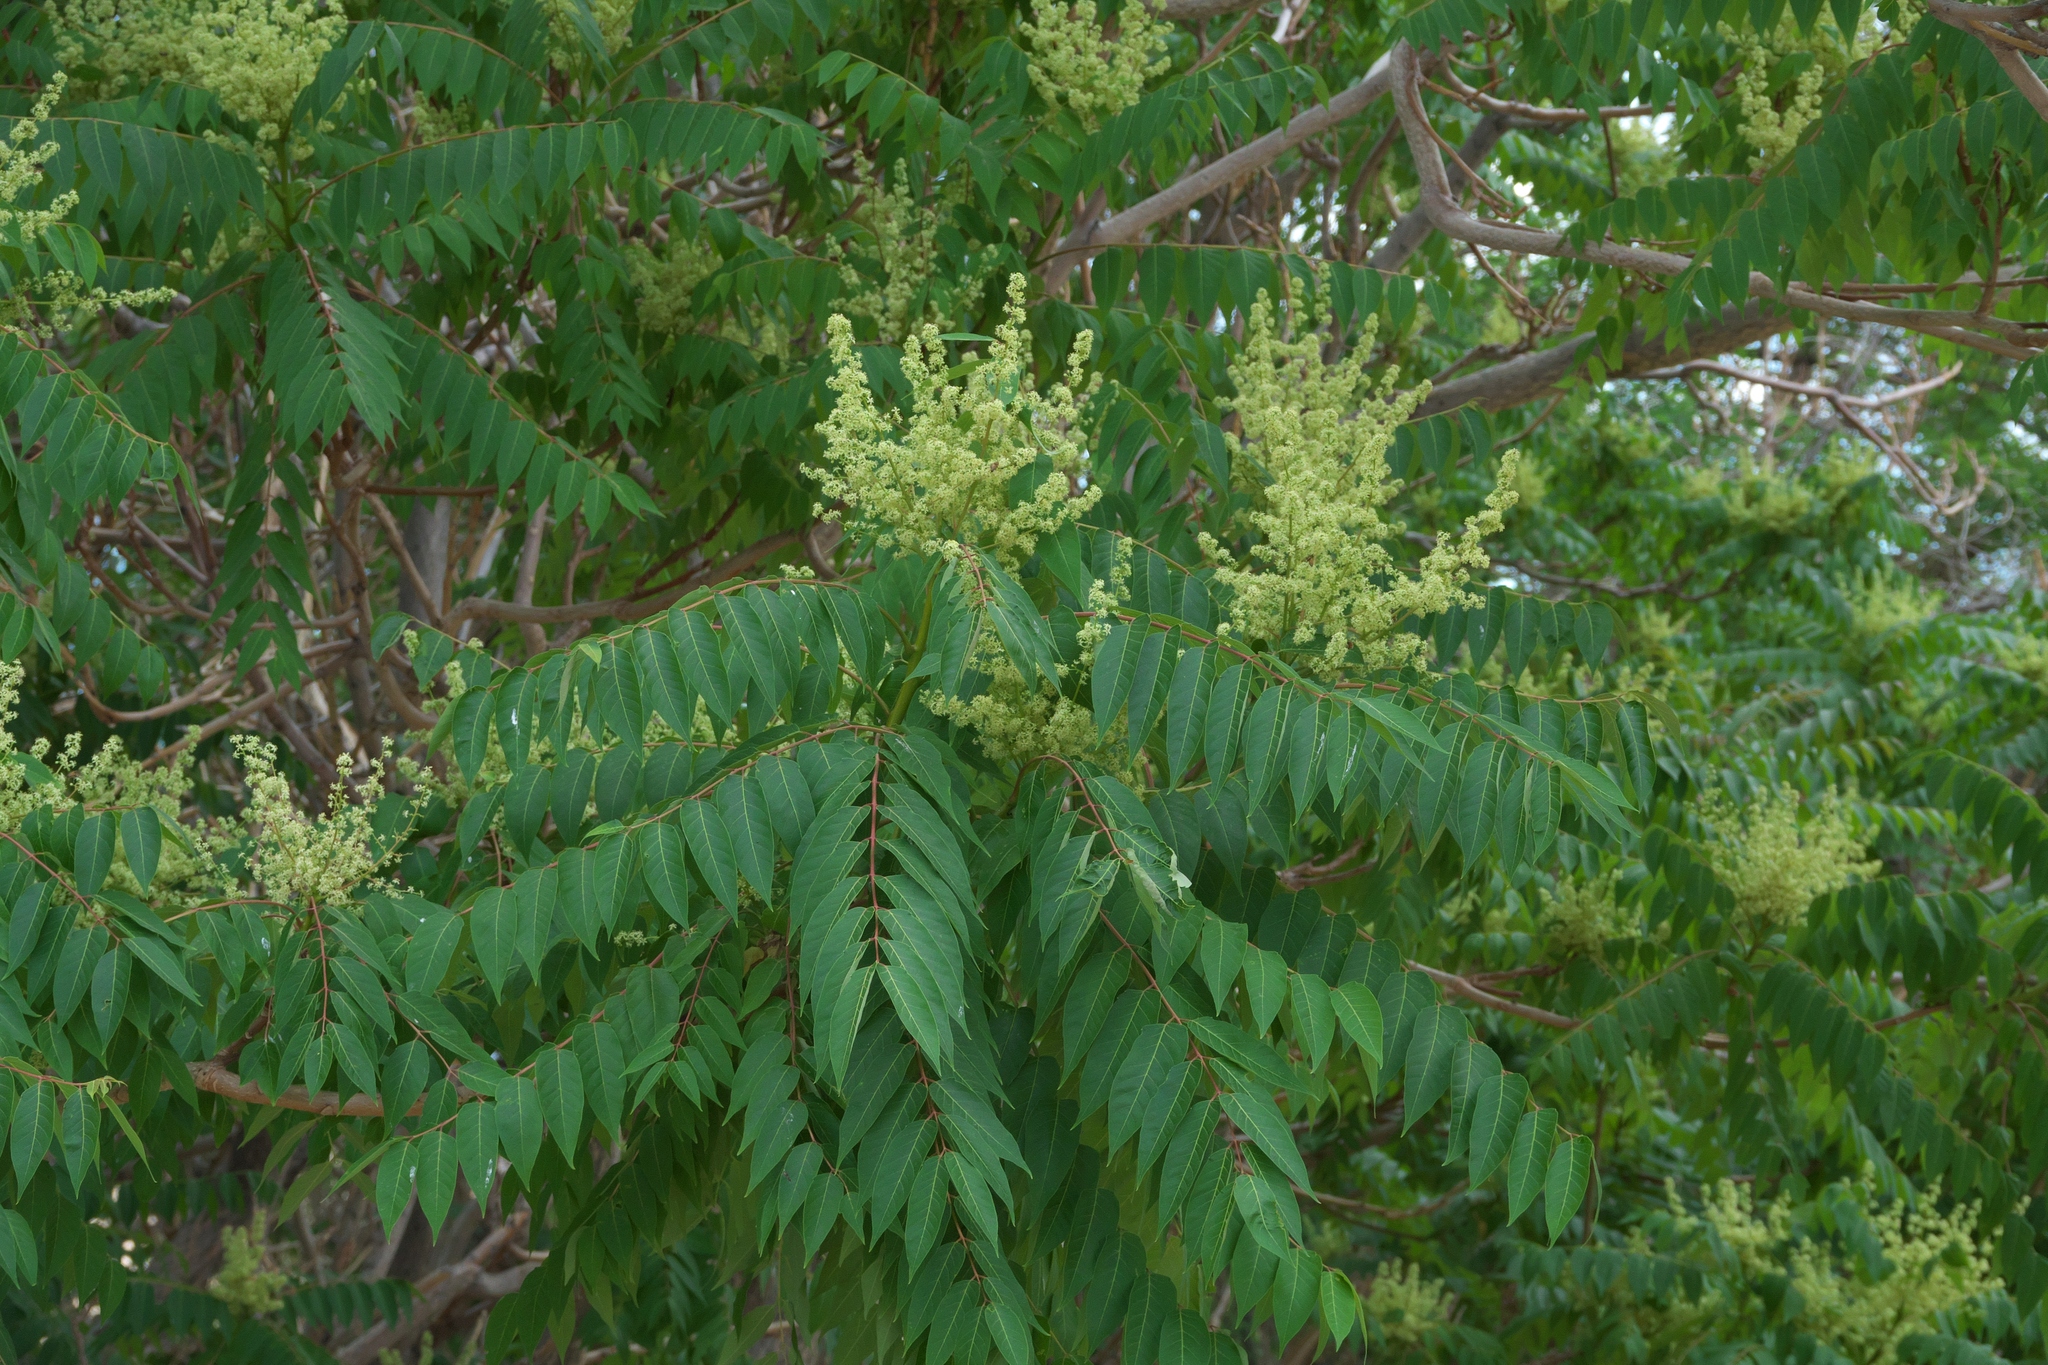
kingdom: Plantae
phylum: Tracheophyta
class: Magnoliopsida
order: Sapindales
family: Simaroubaceae
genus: Ailanthus
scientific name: Ailanthus altissima
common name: Tree-of-heaven
